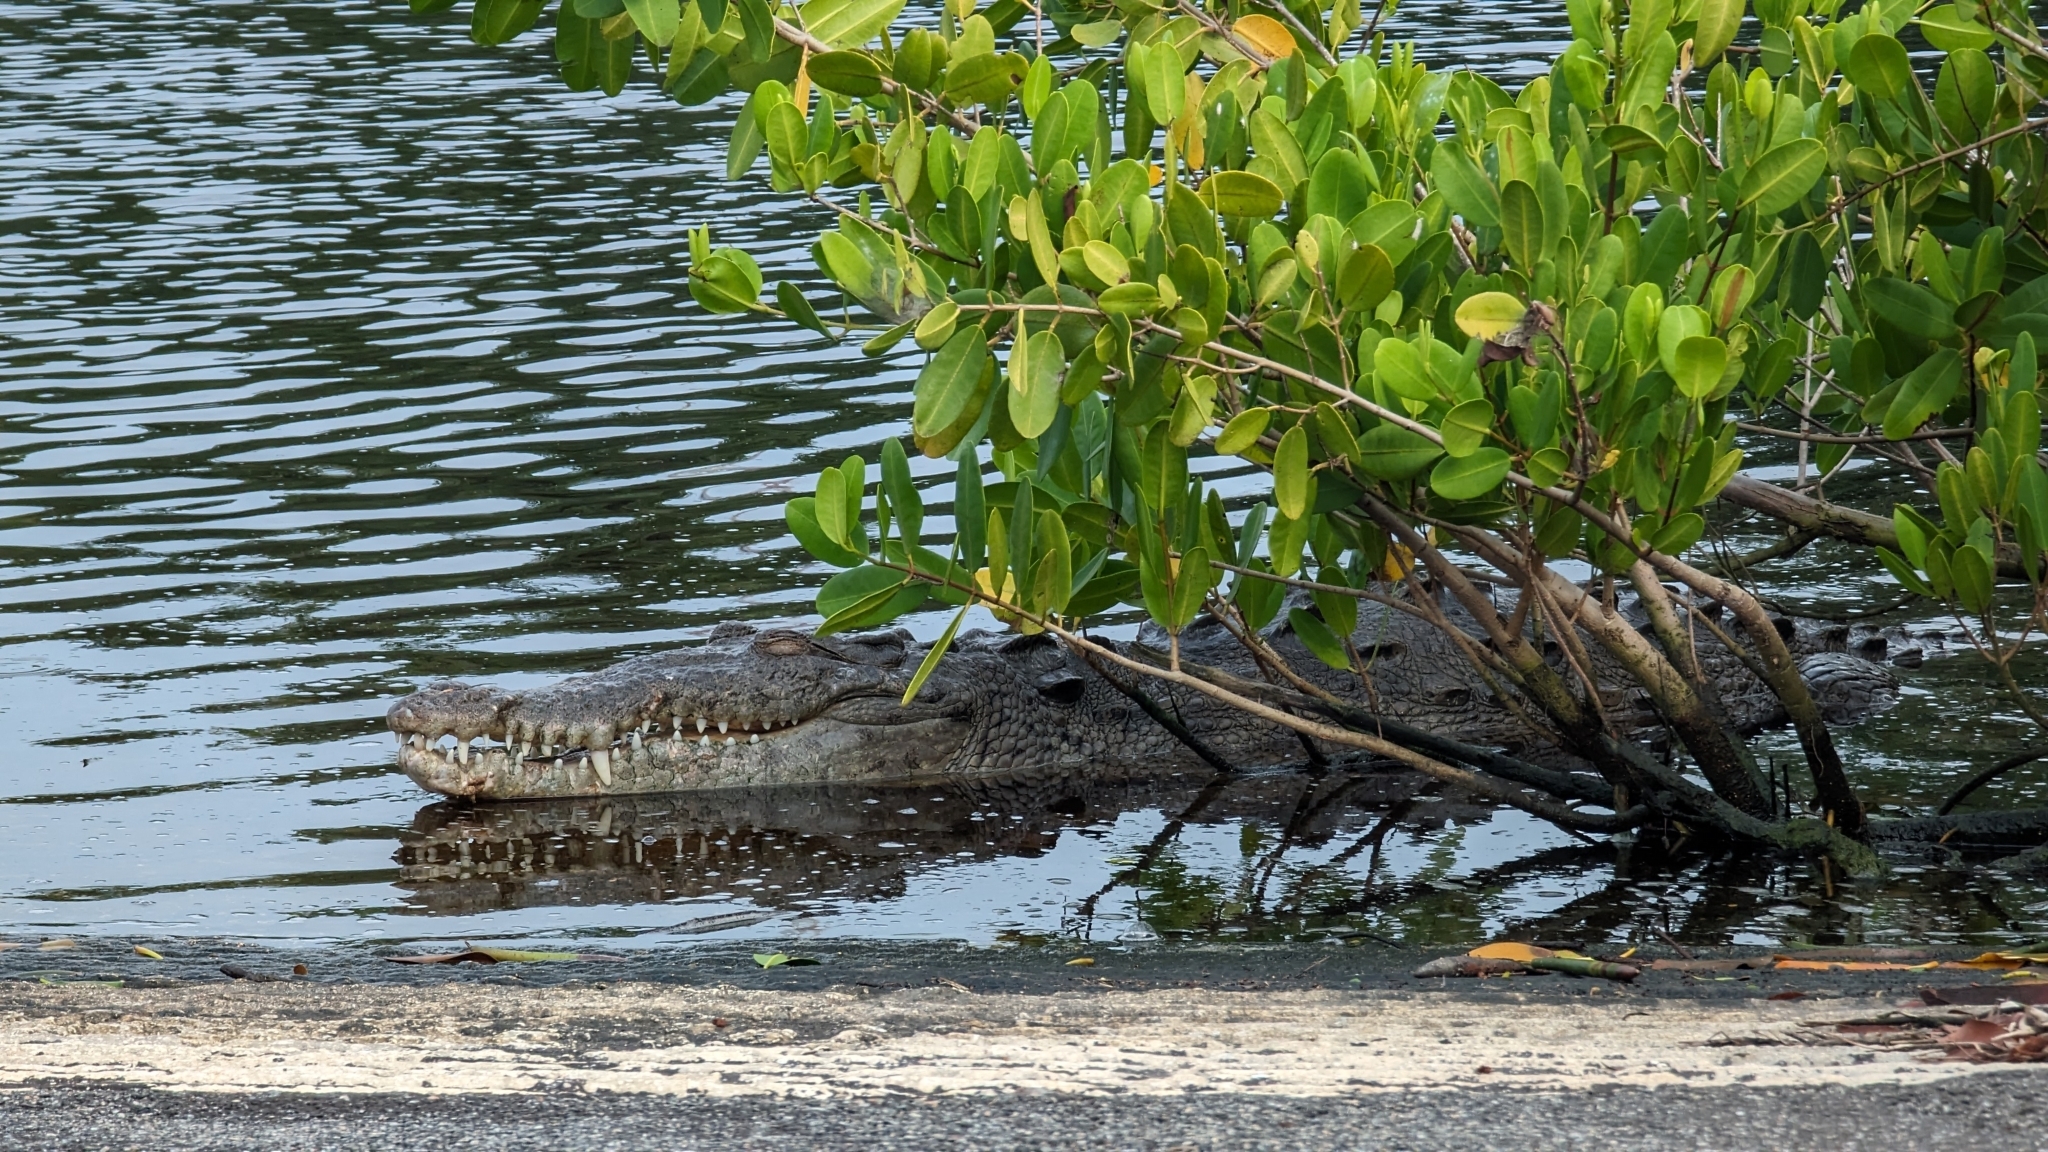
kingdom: Animalia
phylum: Chordata
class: Crocodylia
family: Crocodylidae
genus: Crocodylus
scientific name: Crocodylus acutus
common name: American crocodile
